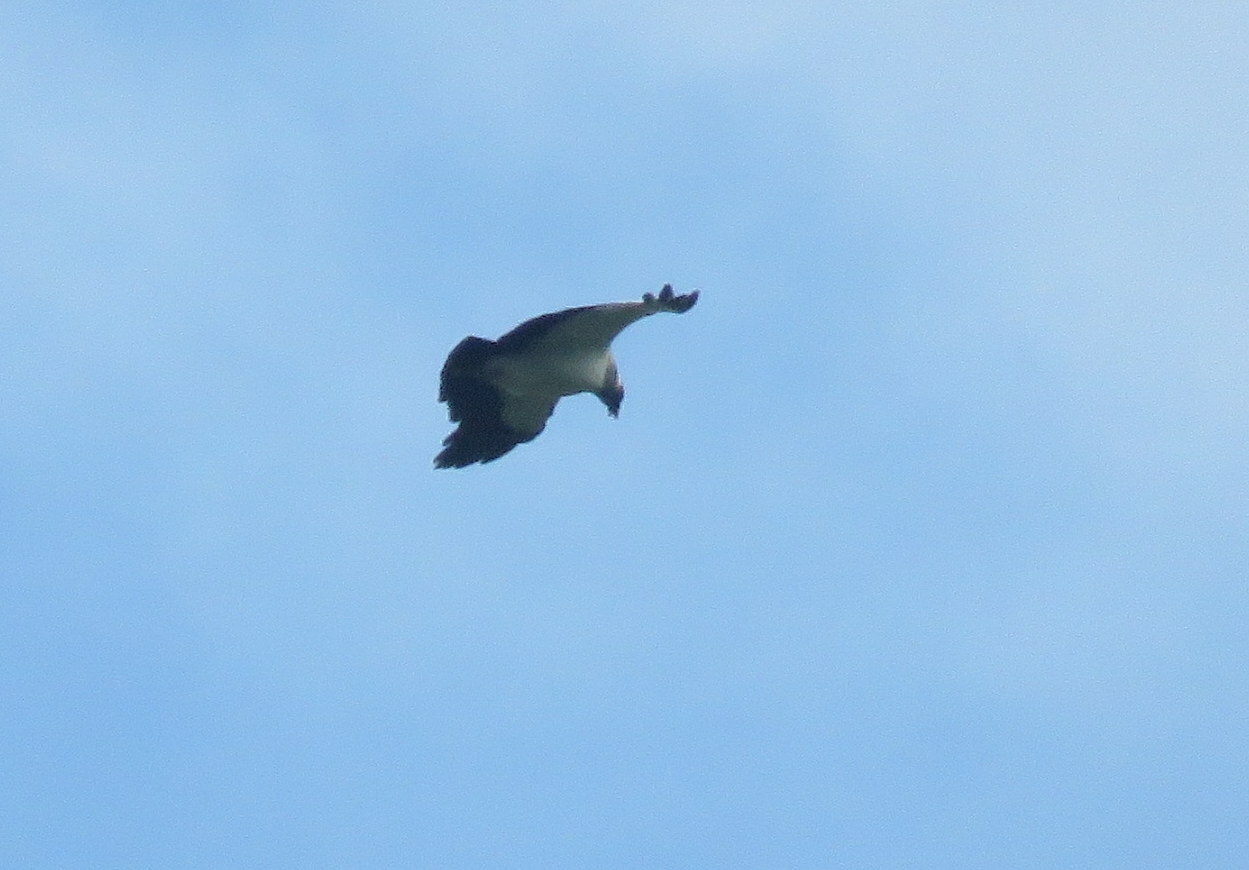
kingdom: Animalia
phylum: Chordata
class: Aves
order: Accipitriformes
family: Cathartidae
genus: Sarcoramphus
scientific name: Sarcoramphus papa
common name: King vulture
